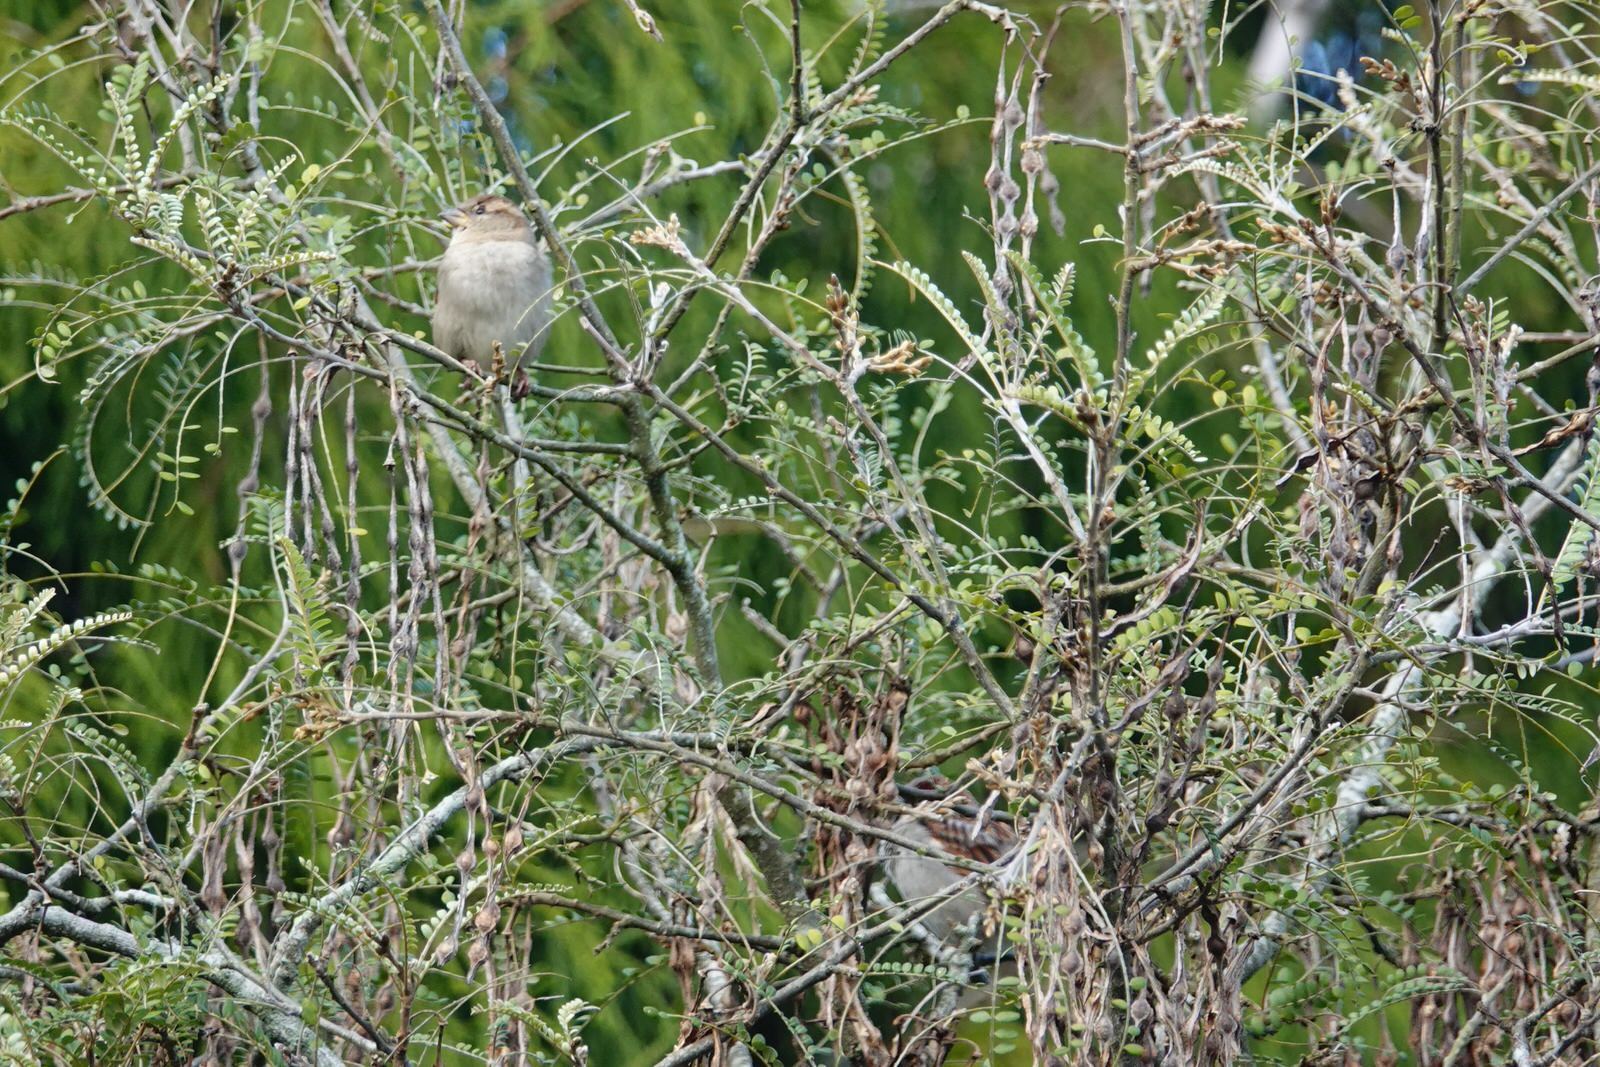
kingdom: Animalia
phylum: Chordata
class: Aves
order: Passeriformes
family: Passeridae
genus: Passer
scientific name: Passer domesticus
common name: House sparrow
